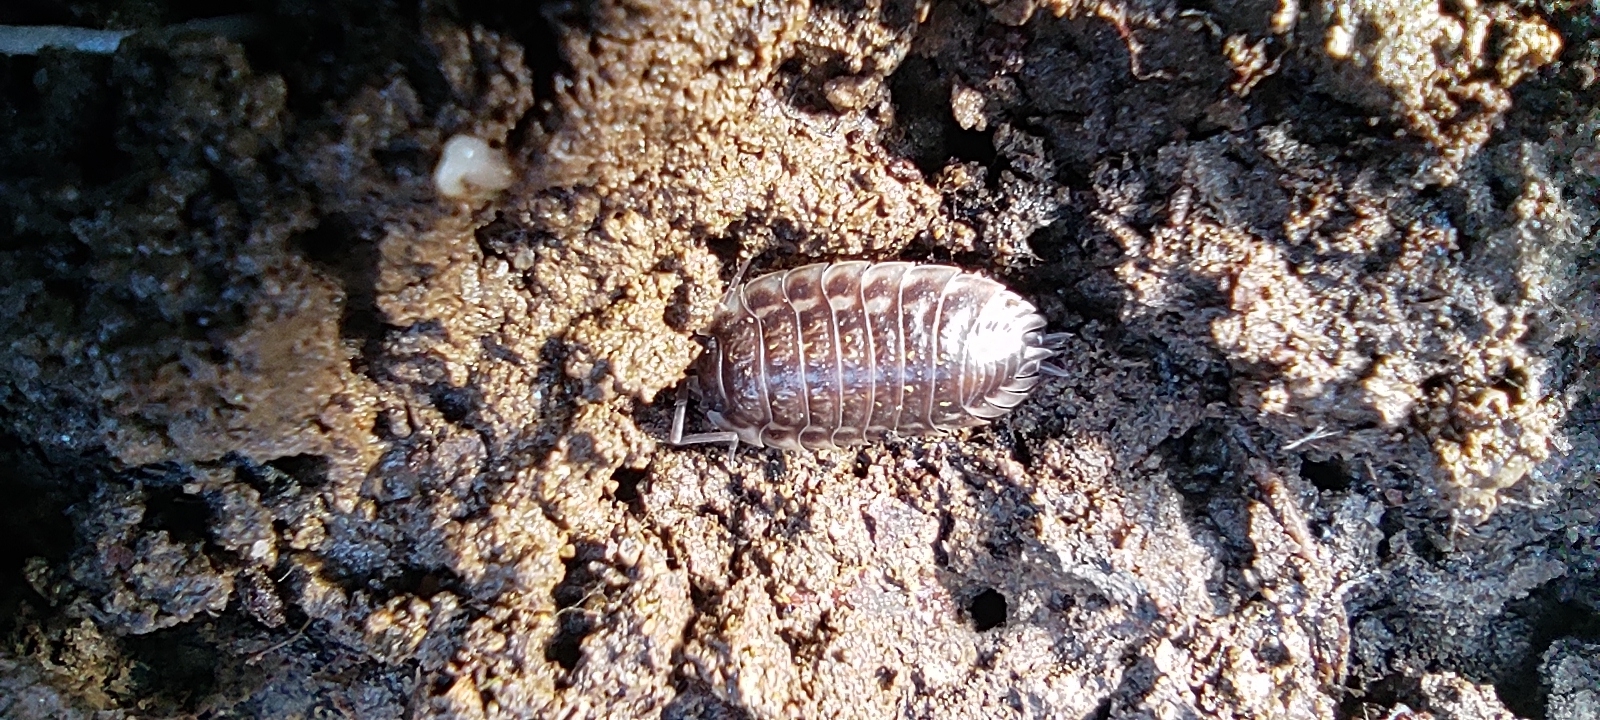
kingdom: Animalia
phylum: Arthropoda
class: Malacostraca
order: Isopoda
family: Oniscidae
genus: Oniscus
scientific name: Oniscus asellus
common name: Common shiny woodlouse
